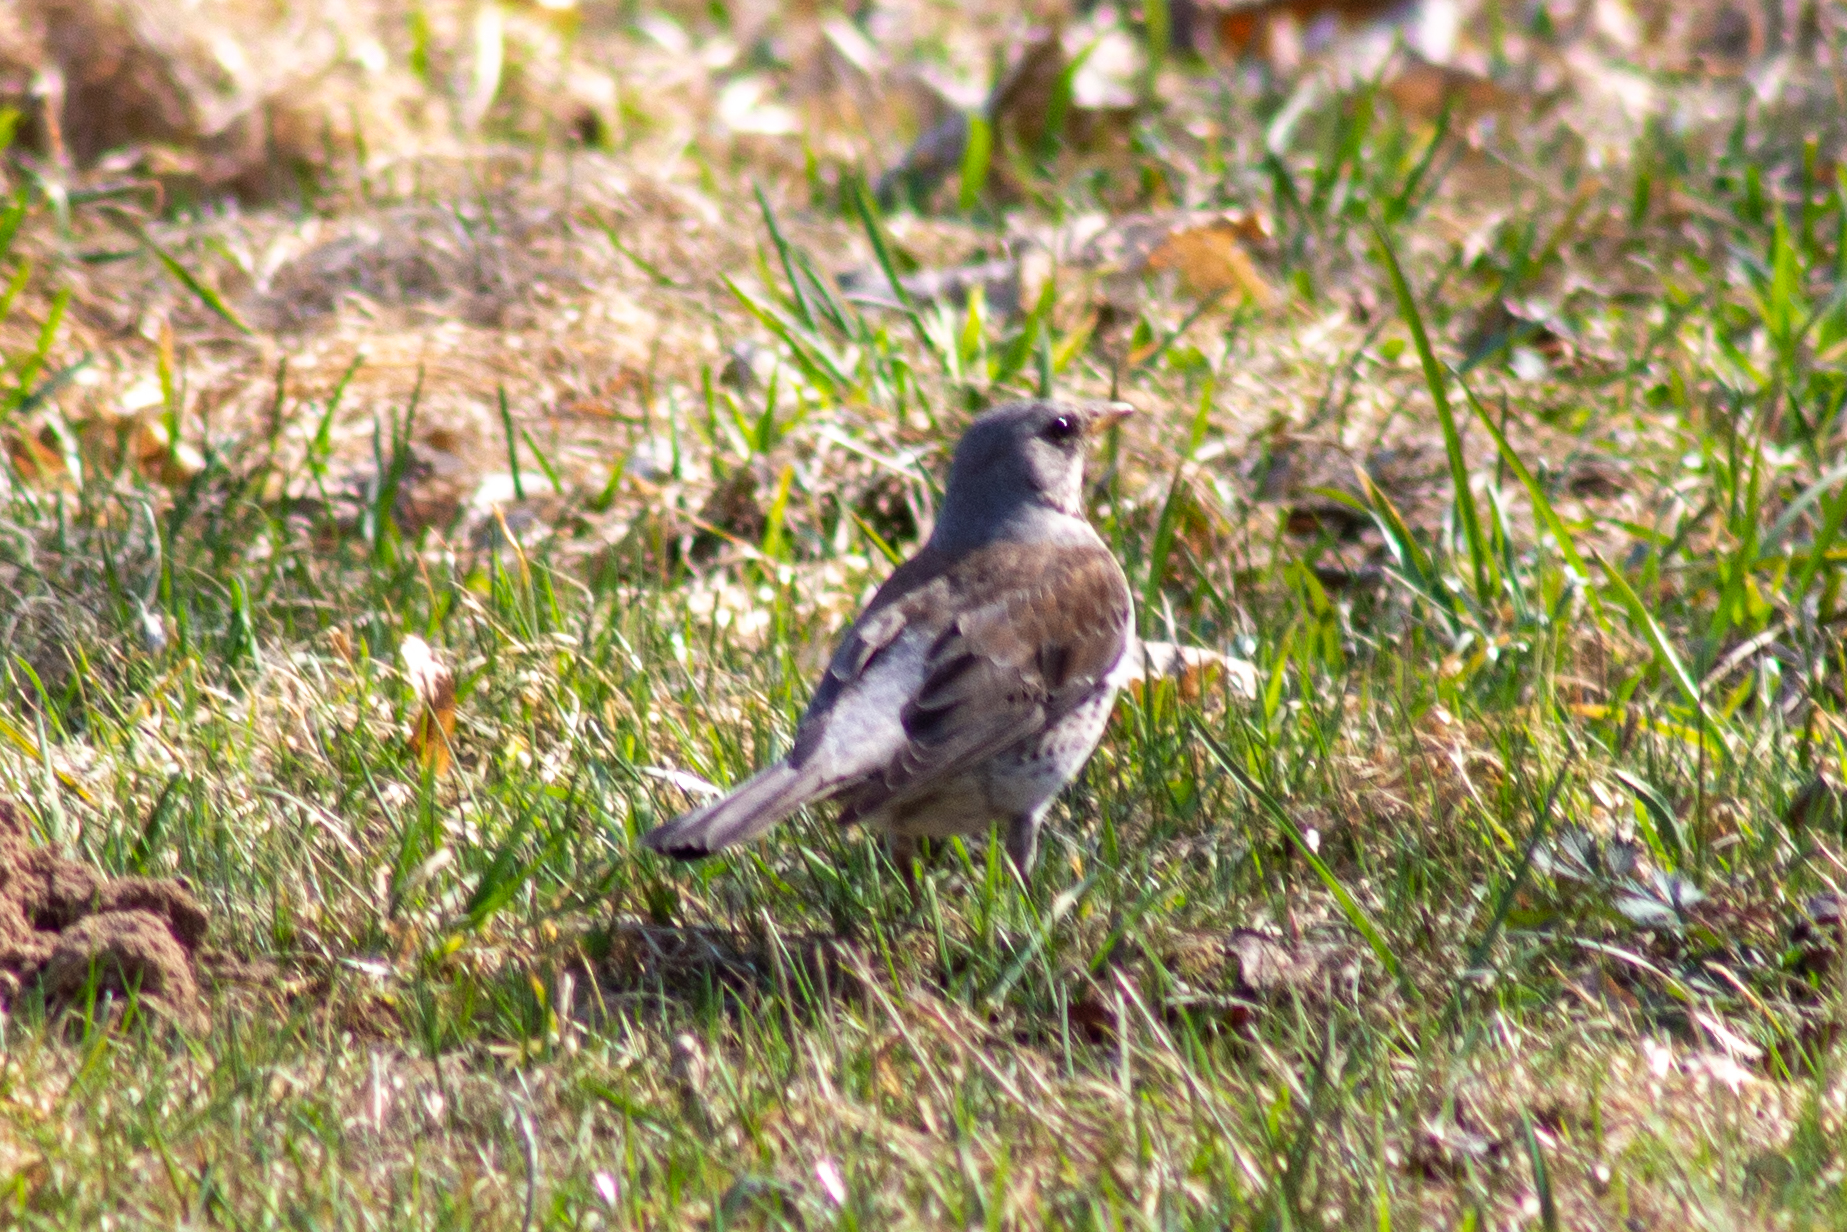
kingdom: Animalia
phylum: Chordata
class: Aves
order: Passeriformes
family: Turdidae
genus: Turdus
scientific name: Turdus pilaris
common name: Fieldfare
